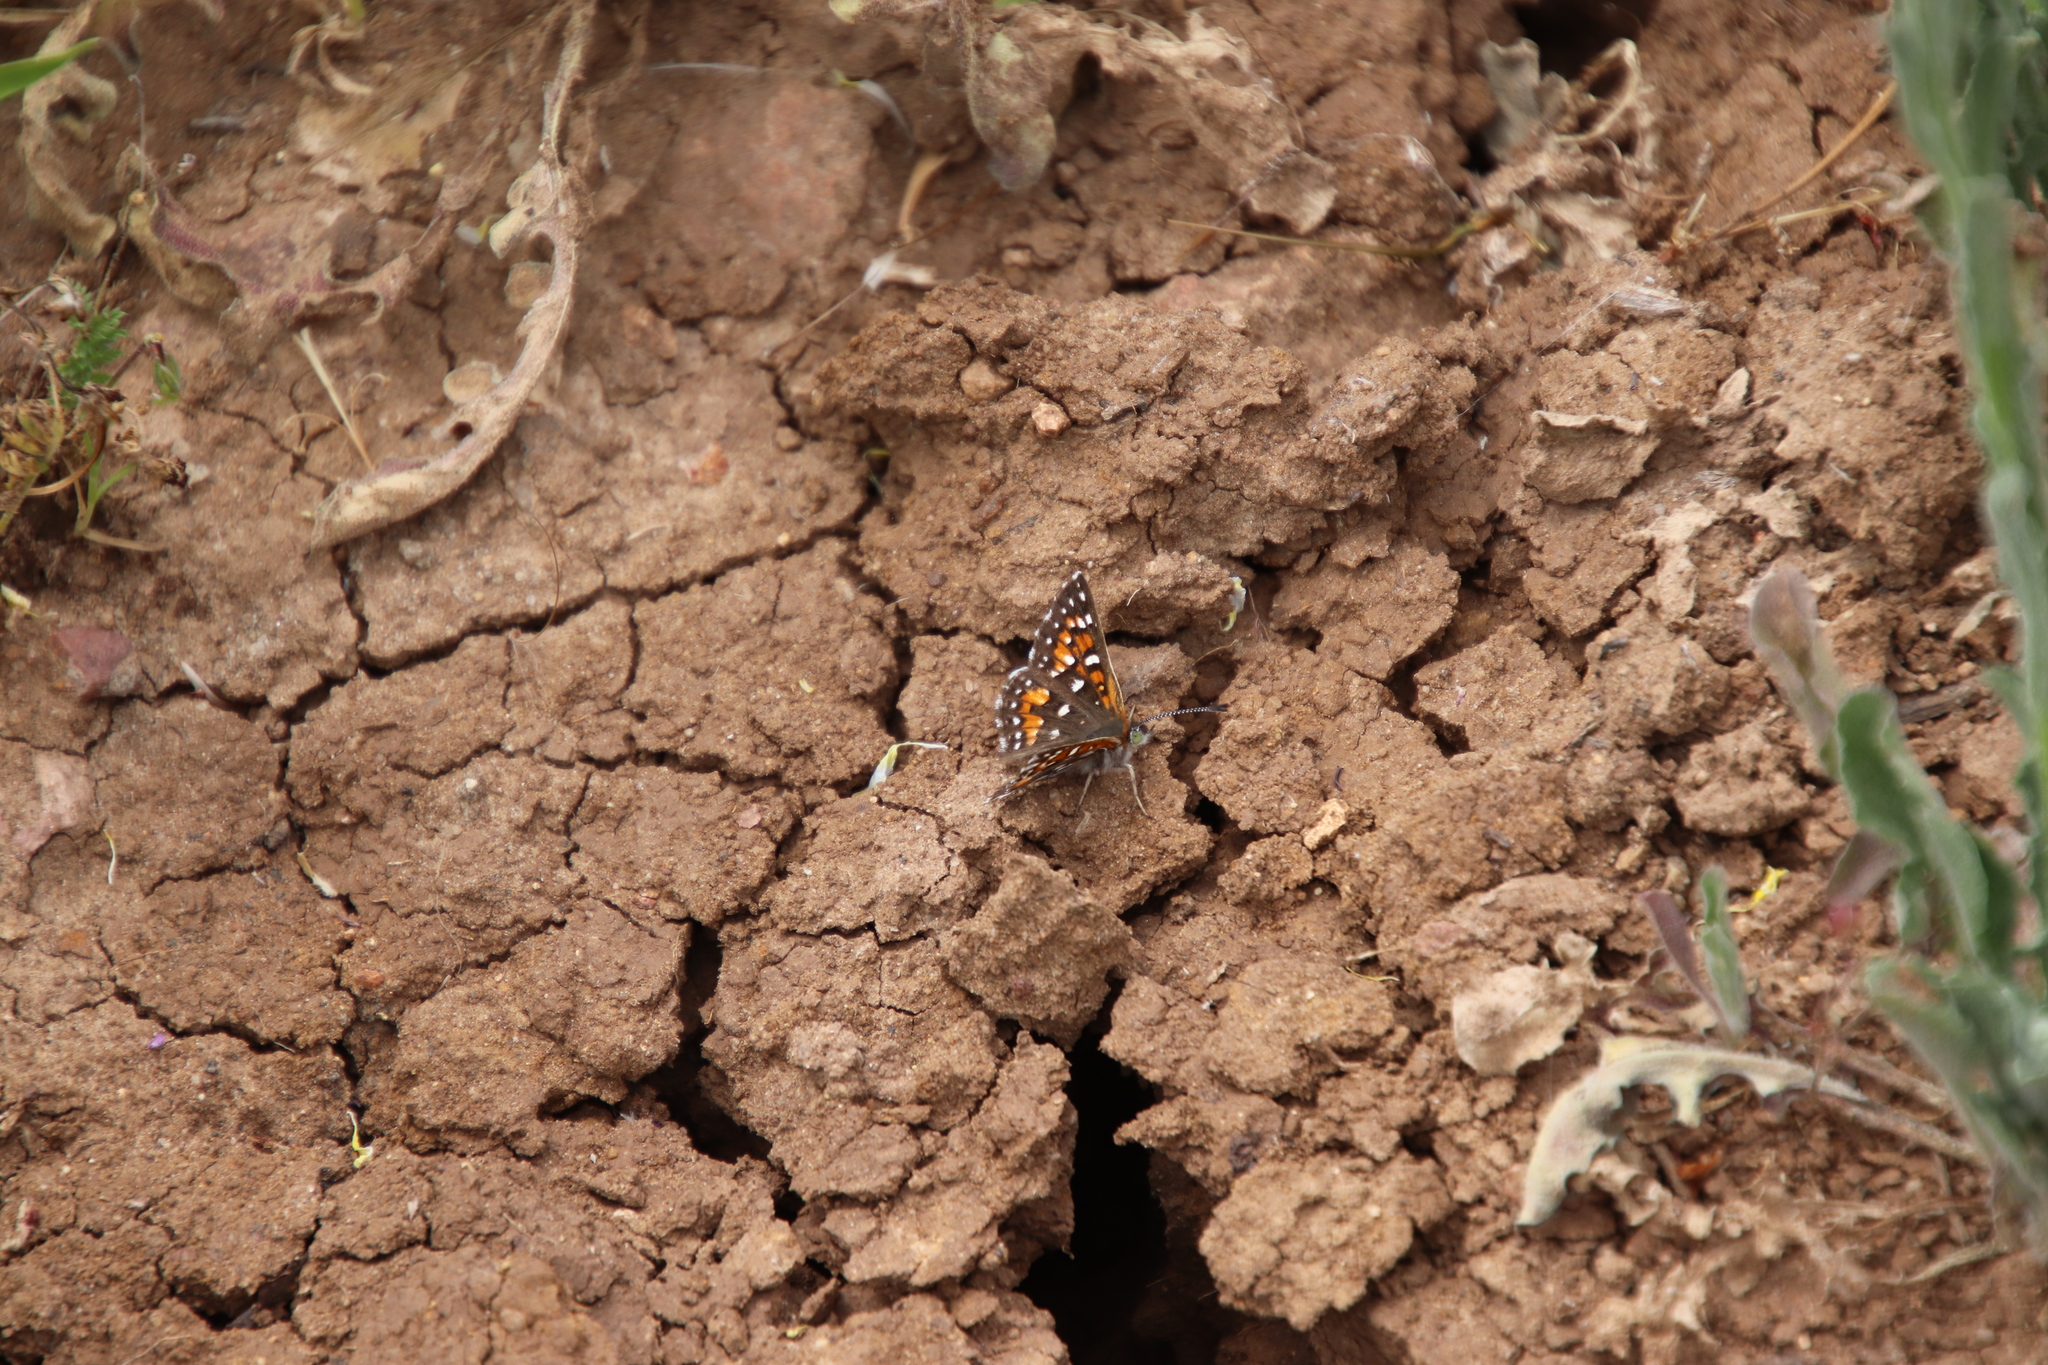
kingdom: Animalia
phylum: Arthropoda
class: Insecta
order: Lepidoptera
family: Riodinidae
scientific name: Riodinidae
